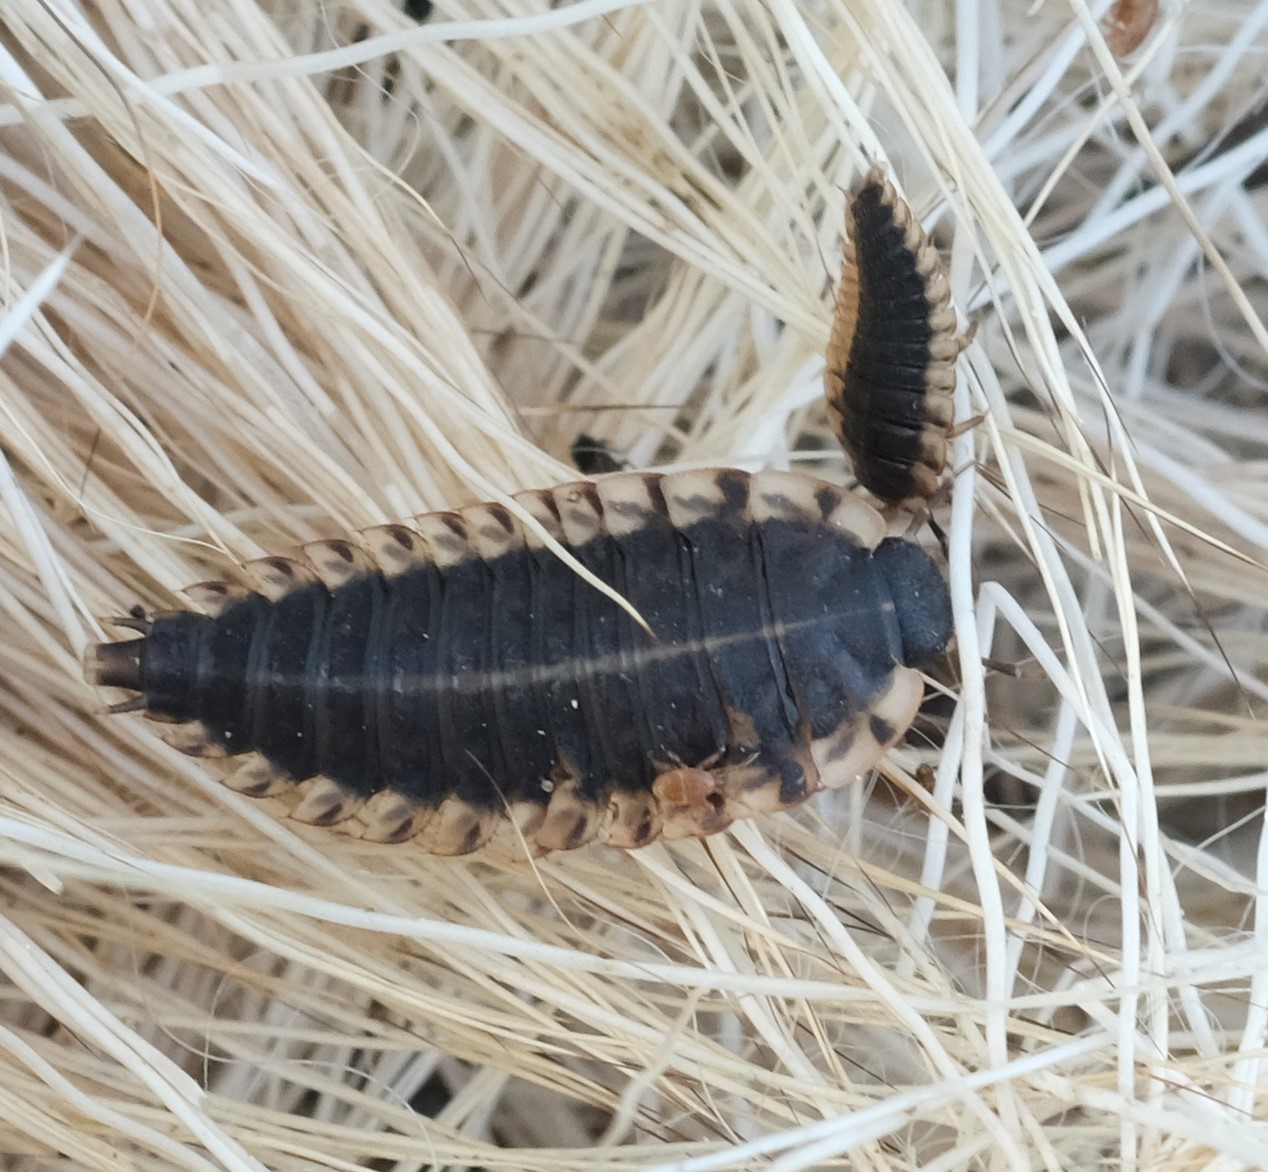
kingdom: Animalia
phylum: Arthropoda
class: Insecta
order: Coleoptera
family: Staphylinidae
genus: Oiceoptoma
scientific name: Oiceoptoma noveboracense
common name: Margined carrion beetle
